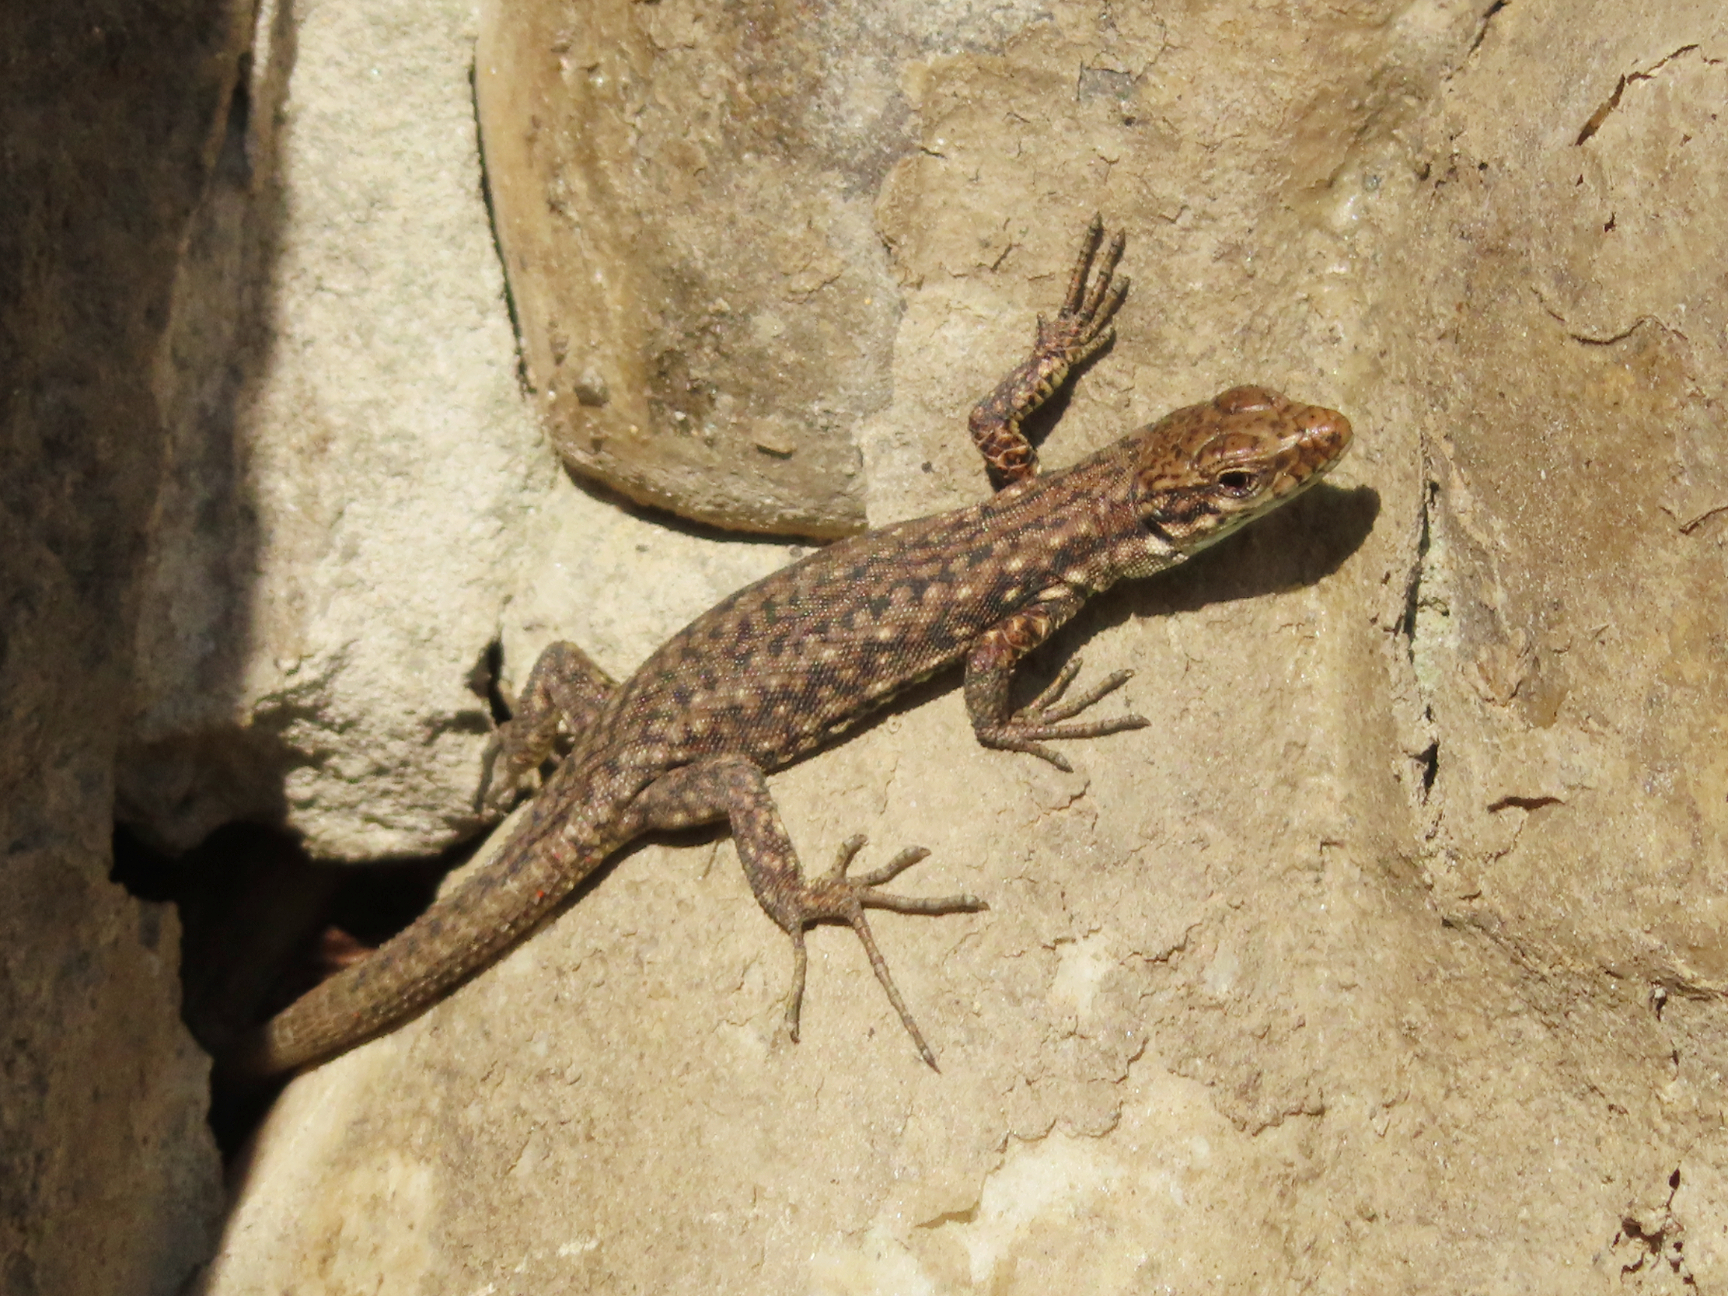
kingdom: Animalia
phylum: Chordata
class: Squamata
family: Lacertidae
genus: Darevskia
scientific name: Darevskia rudis
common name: Spiny-tailed lizard
